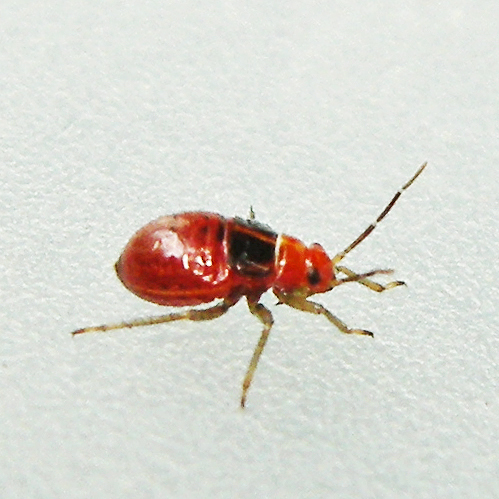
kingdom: Animalia
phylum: Arthropoda
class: Insecta
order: Hemiptera
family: Miridae
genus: Poecilocapsus
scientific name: Poecilocapsus lineatus
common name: Four-lined plant bug
